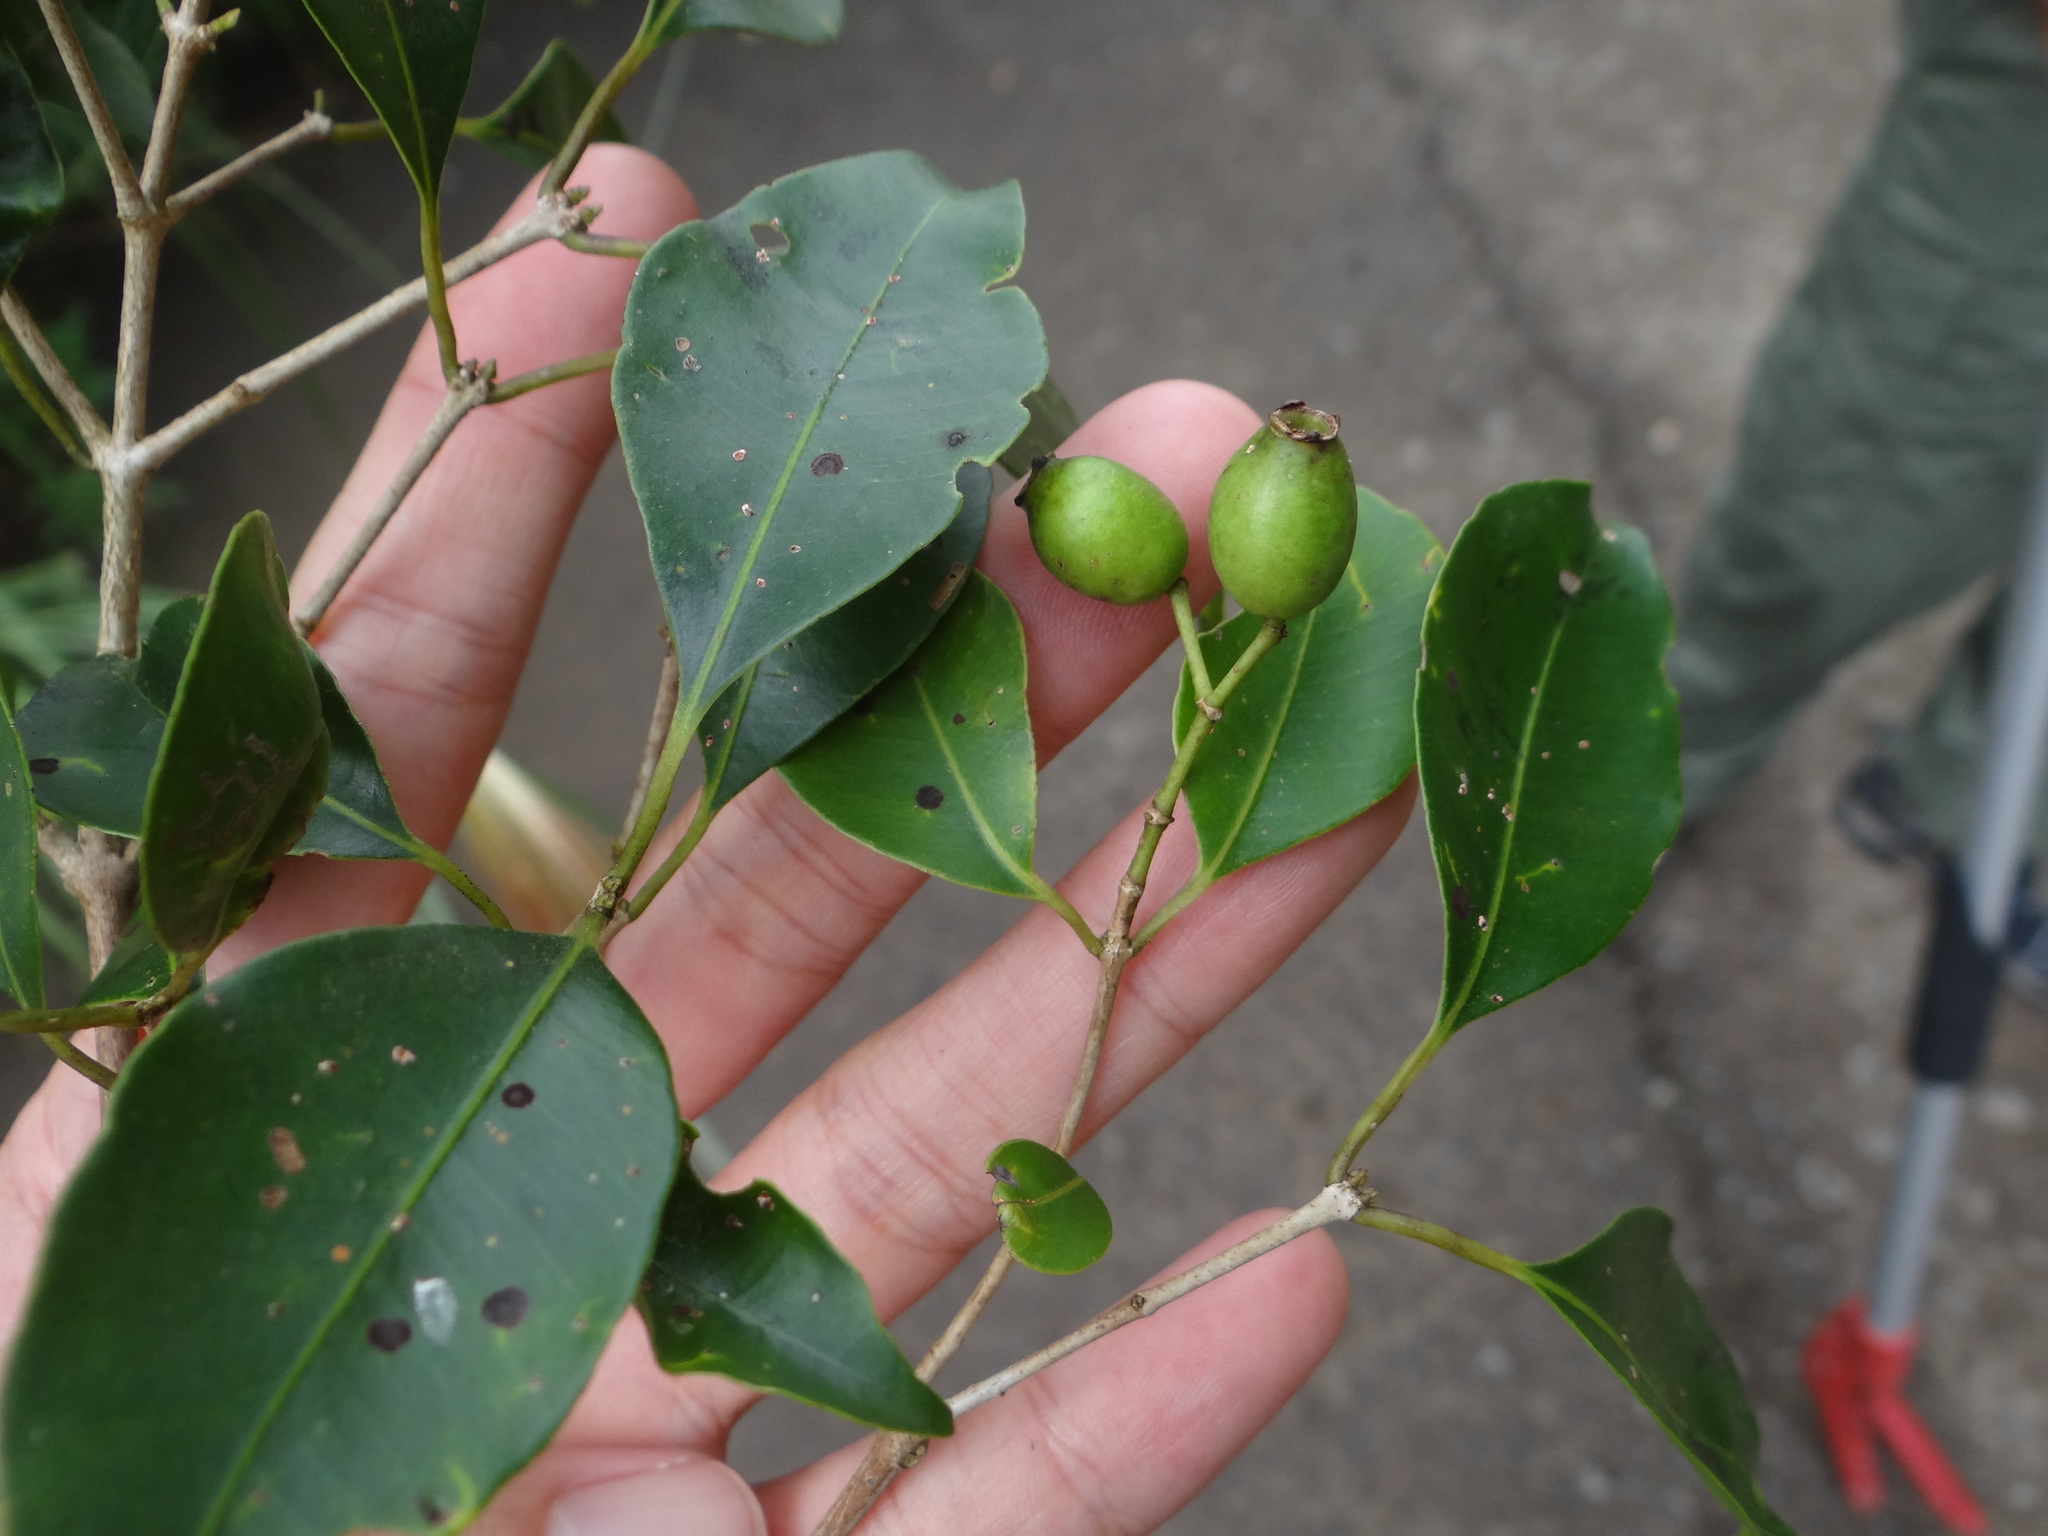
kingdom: Plantae
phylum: Tracheophyta
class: Magnoliopsida
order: Myrtales
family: Myrtaceae
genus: Syzygium
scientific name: Syzygium euphlebium
